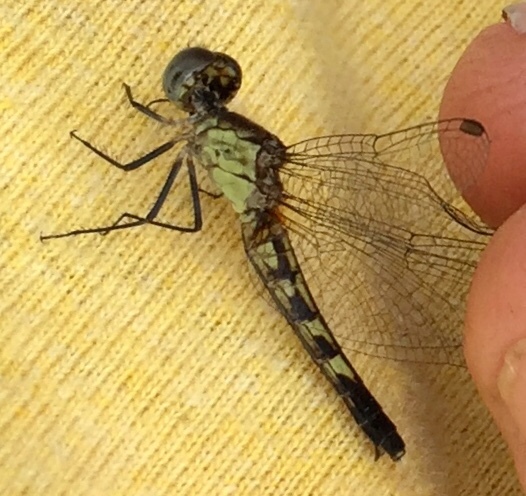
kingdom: Animalia
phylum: Arthropoda
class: Insecta
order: Odonata
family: Libellulidae
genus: Erythrodiplax
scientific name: Erythrodiplax minuscula
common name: Little blue dragonlet
